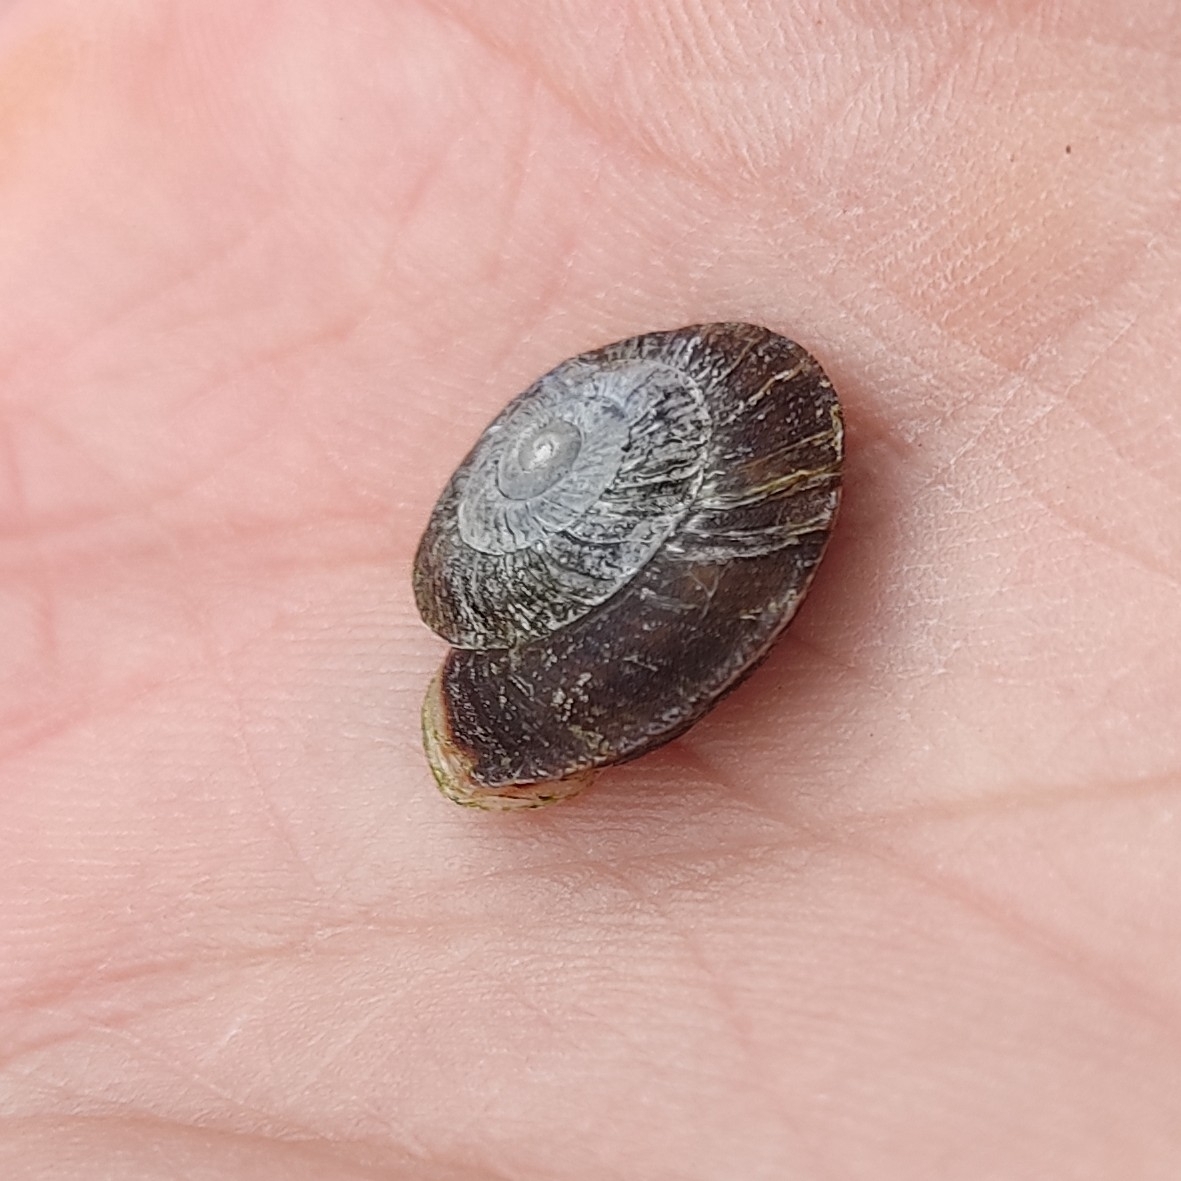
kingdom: Animalia
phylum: Mollusca
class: Gastropoda
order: Stylommatophora
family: Helicidae
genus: Helicigona
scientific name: Helicigona lapicida
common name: Lapidary snail
